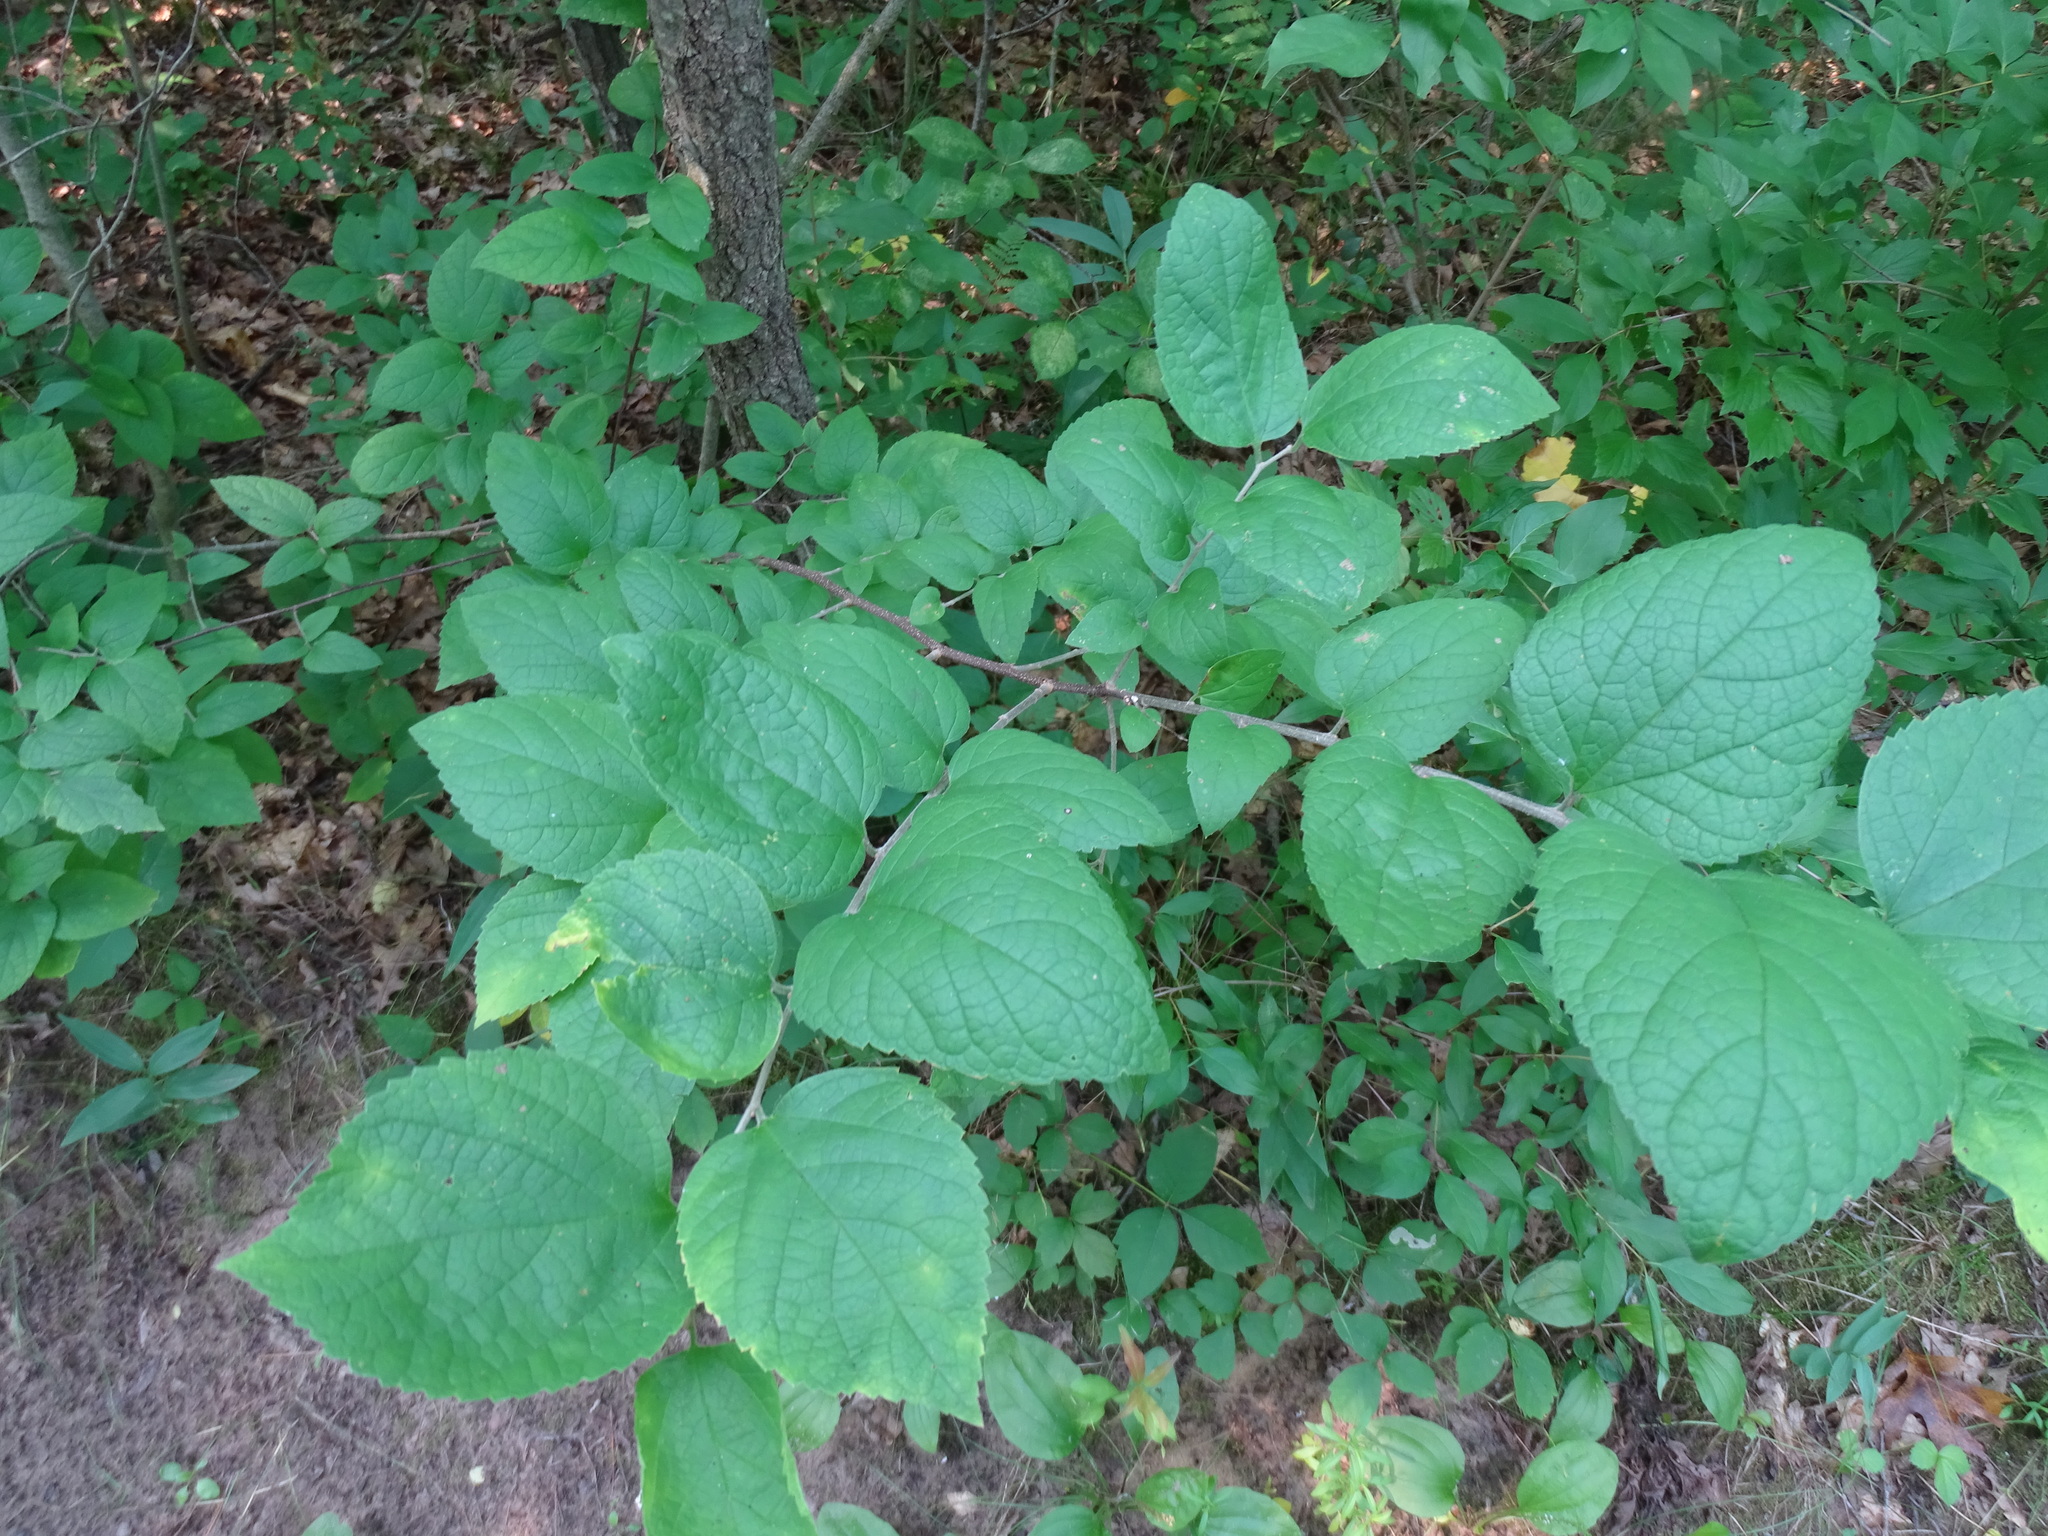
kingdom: Plantae
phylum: Tracheophyta
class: Magnoliopsida
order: Rosales
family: Cannabaceae
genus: Celtis
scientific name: Celtis tenuifolia
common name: Georgia hackberry
